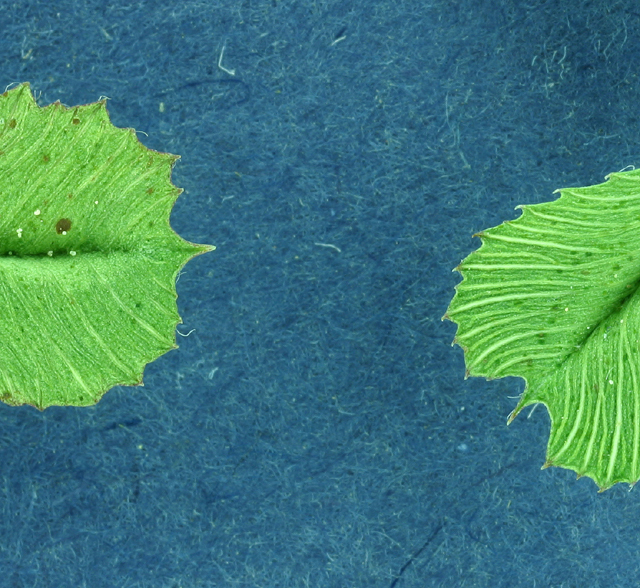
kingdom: Plantae
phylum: Tracheophyta
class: Magnoliopsida
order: Fabales
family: Fabaceae
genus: Trifolium
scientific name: Trifolium breweri
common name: Forest clover
